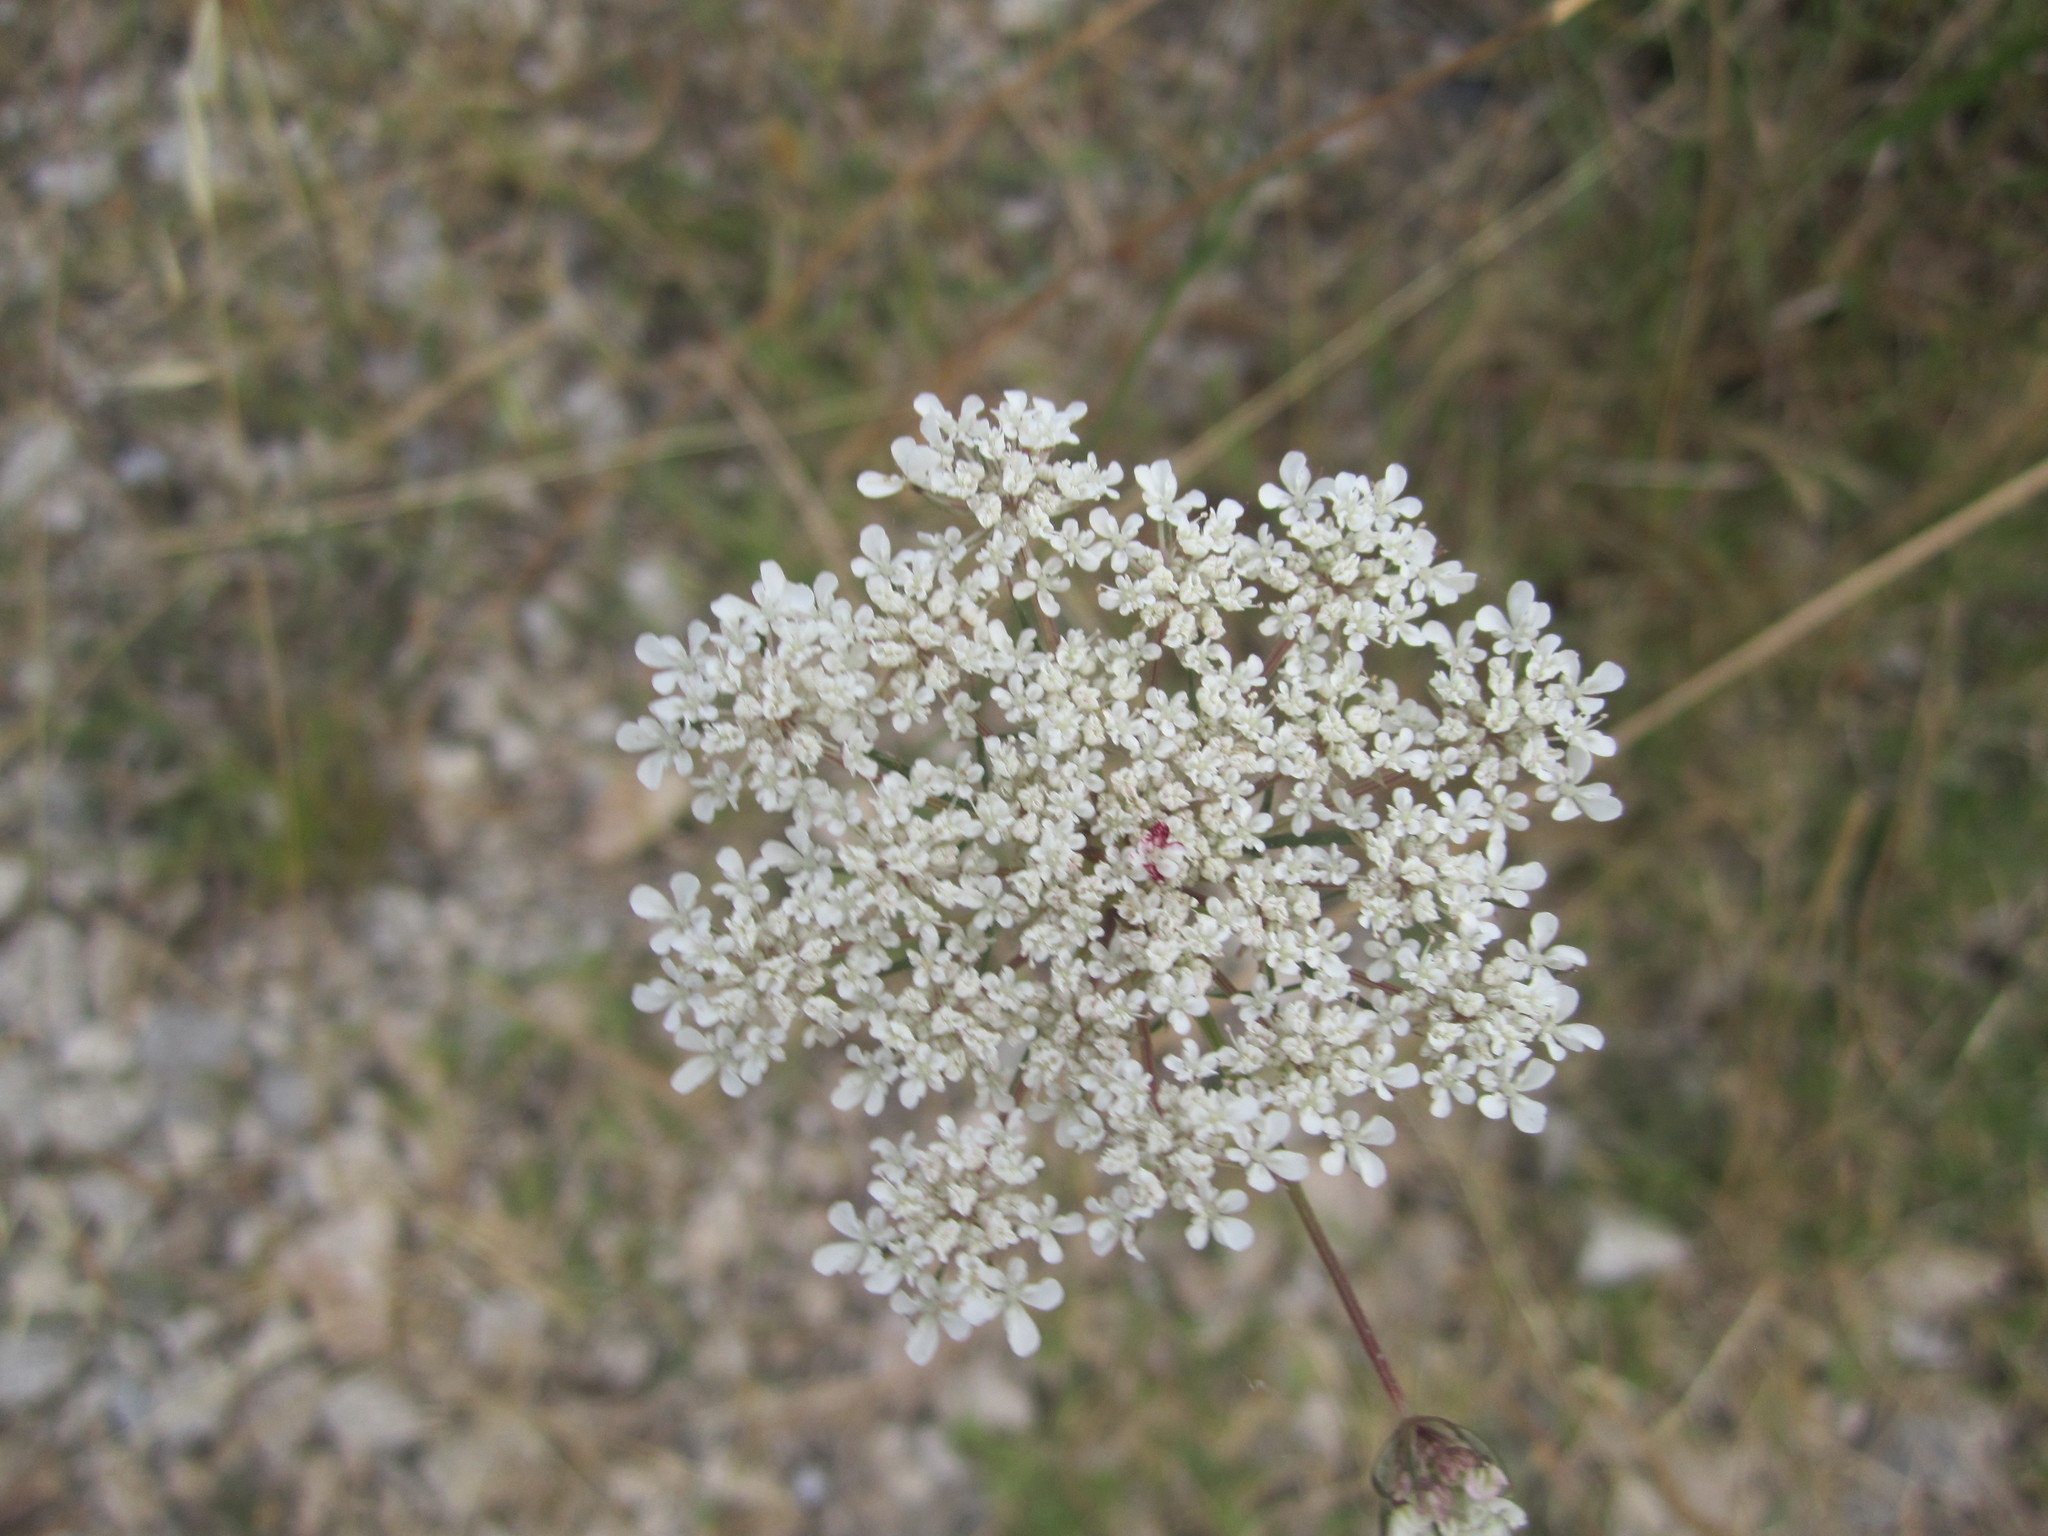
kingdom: Plantae
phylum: Tracheophyta
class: Magnoliopsida
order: Apiales
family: Apiaceae
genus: Daucus
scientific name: Daucus carota
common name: Wild carrot
